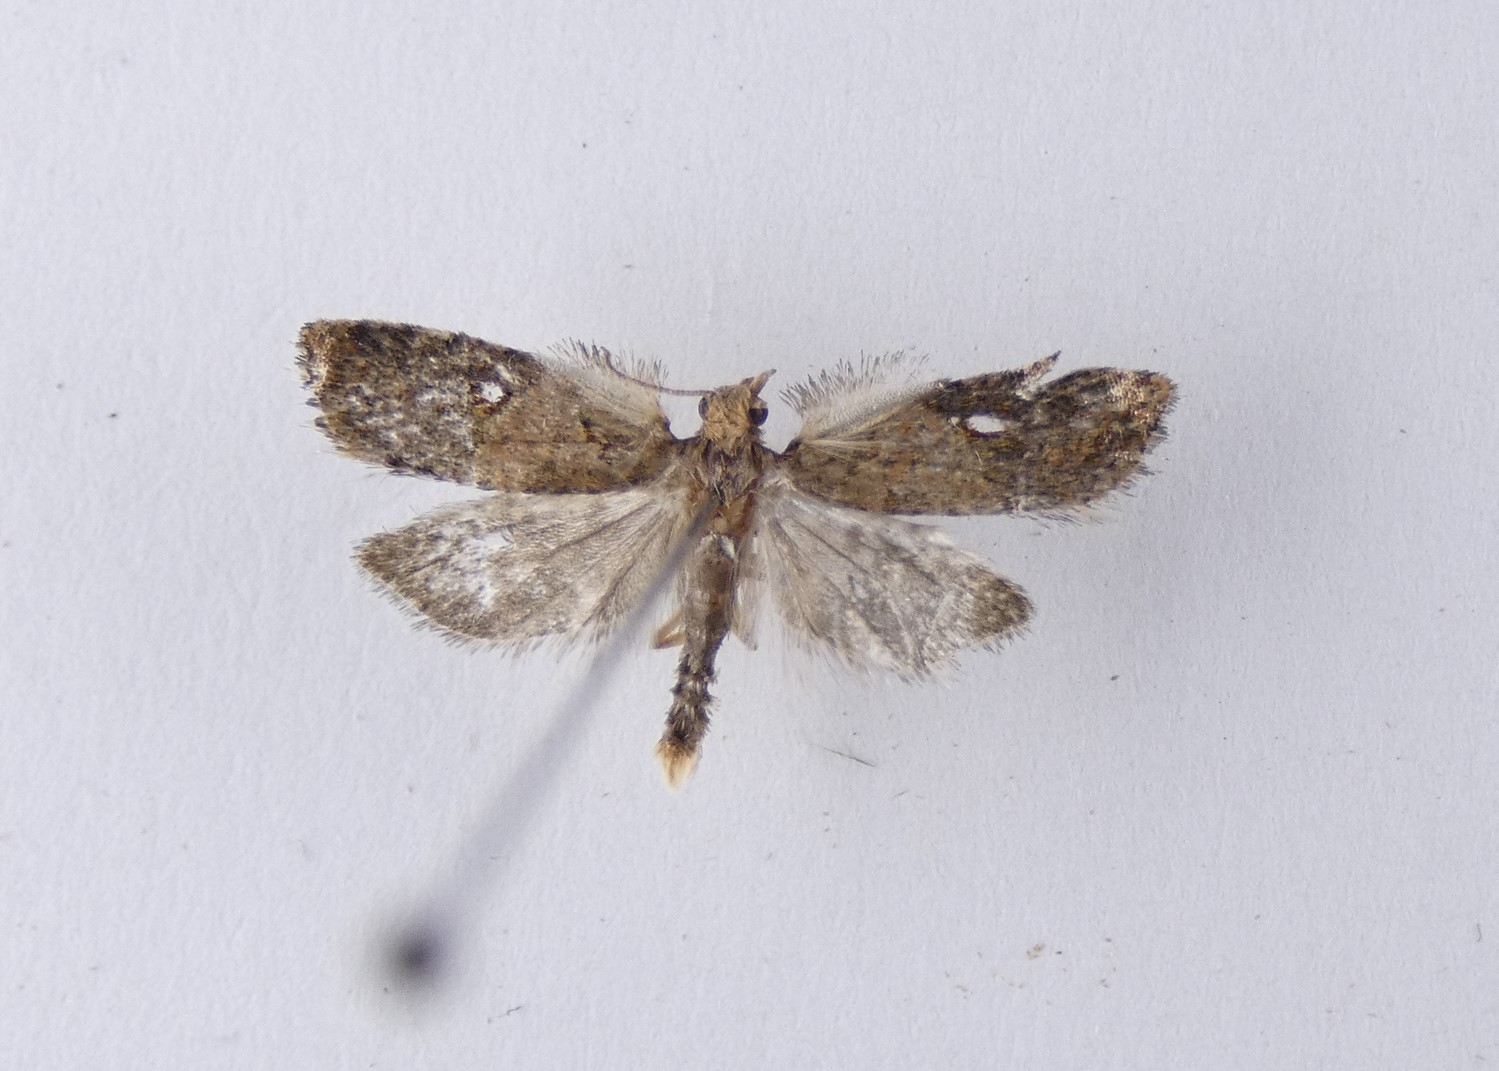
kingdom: Animalia
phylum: Arthropoda
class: Insecta
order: Lepidoptera
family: Tortricidae
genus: Capua
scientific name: Capua semiferana
